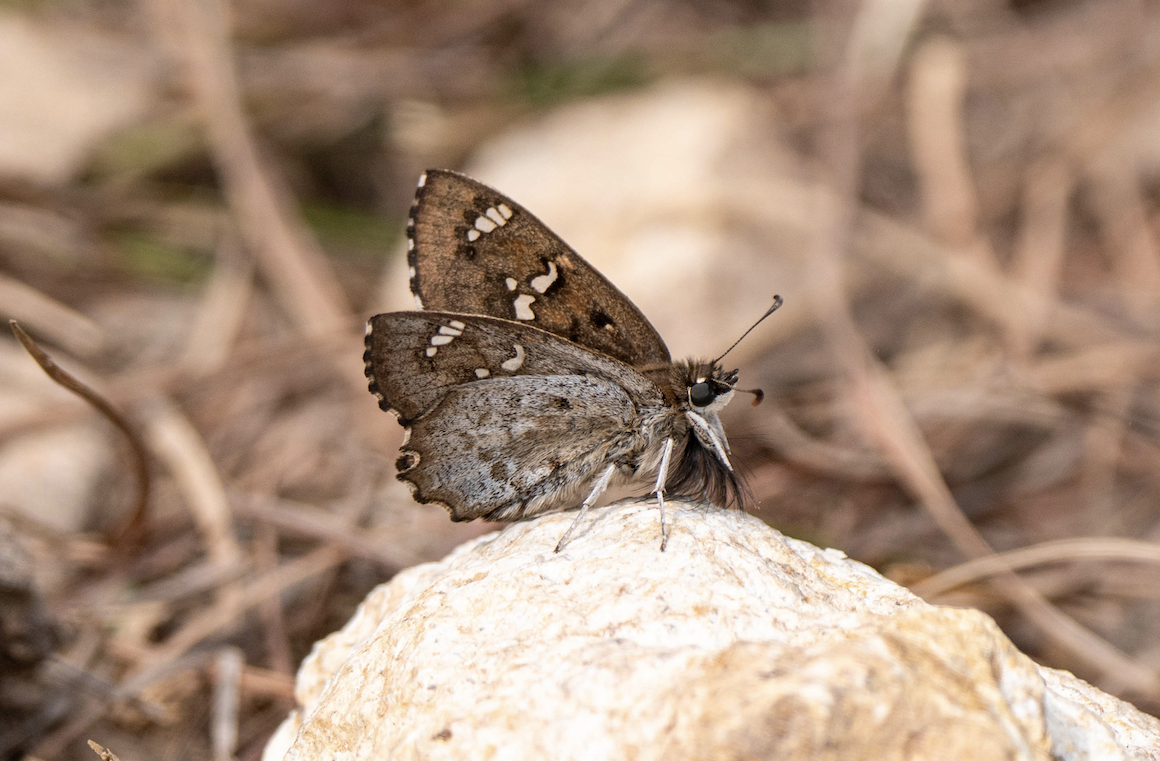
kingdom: Animalia
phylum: Arthropoda
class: Insecta
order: Lepidoptera
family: Hesperiidae
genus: Caprona
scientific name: Caprona alida
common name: Spotted angle
